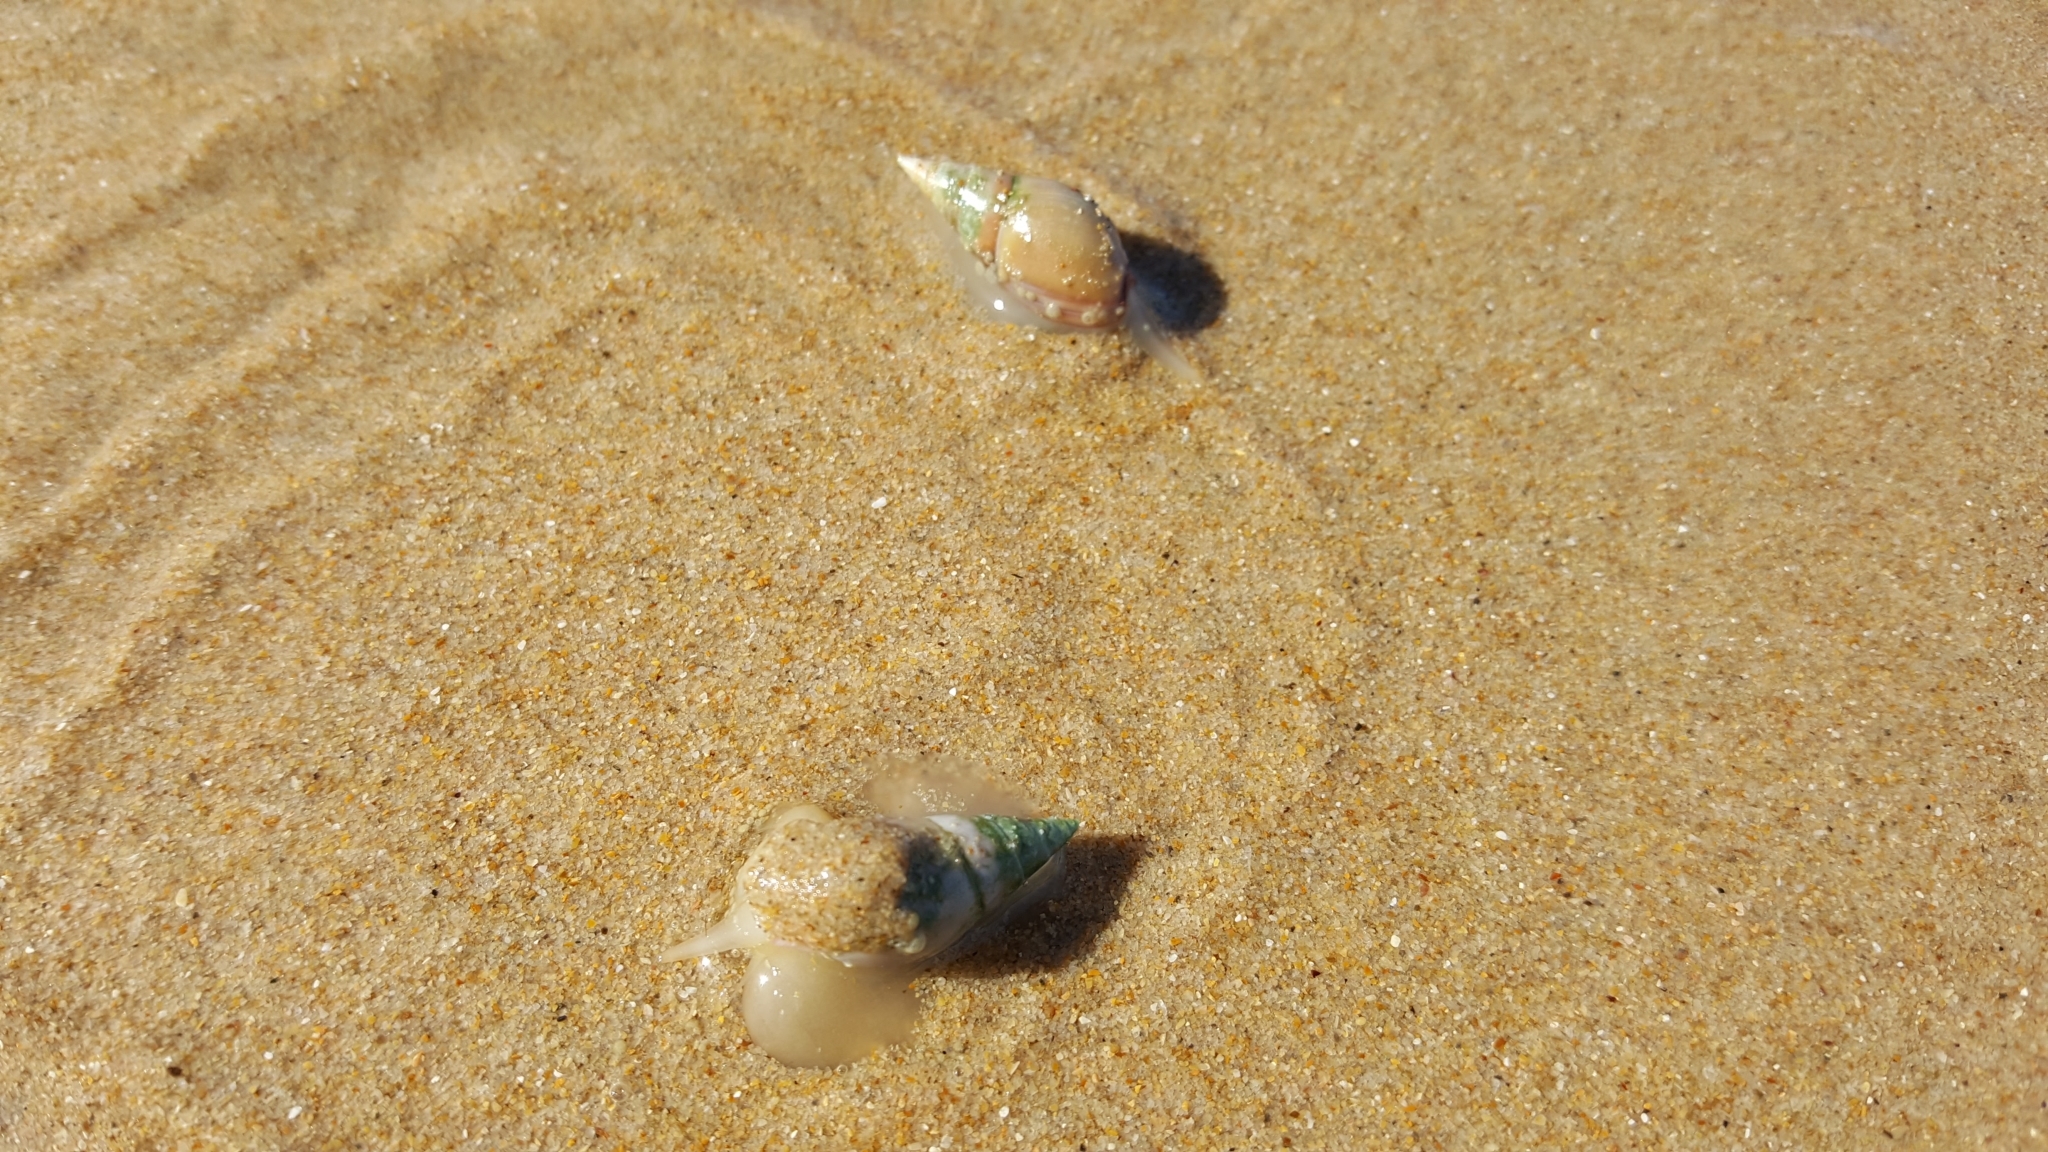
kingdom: Animalia
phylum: Mollusca
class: Gastropoda
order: Neogastropoda
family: Nassariidae
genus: Bullia
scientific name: Bullia rhodostoma
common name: Smooth plough shell
